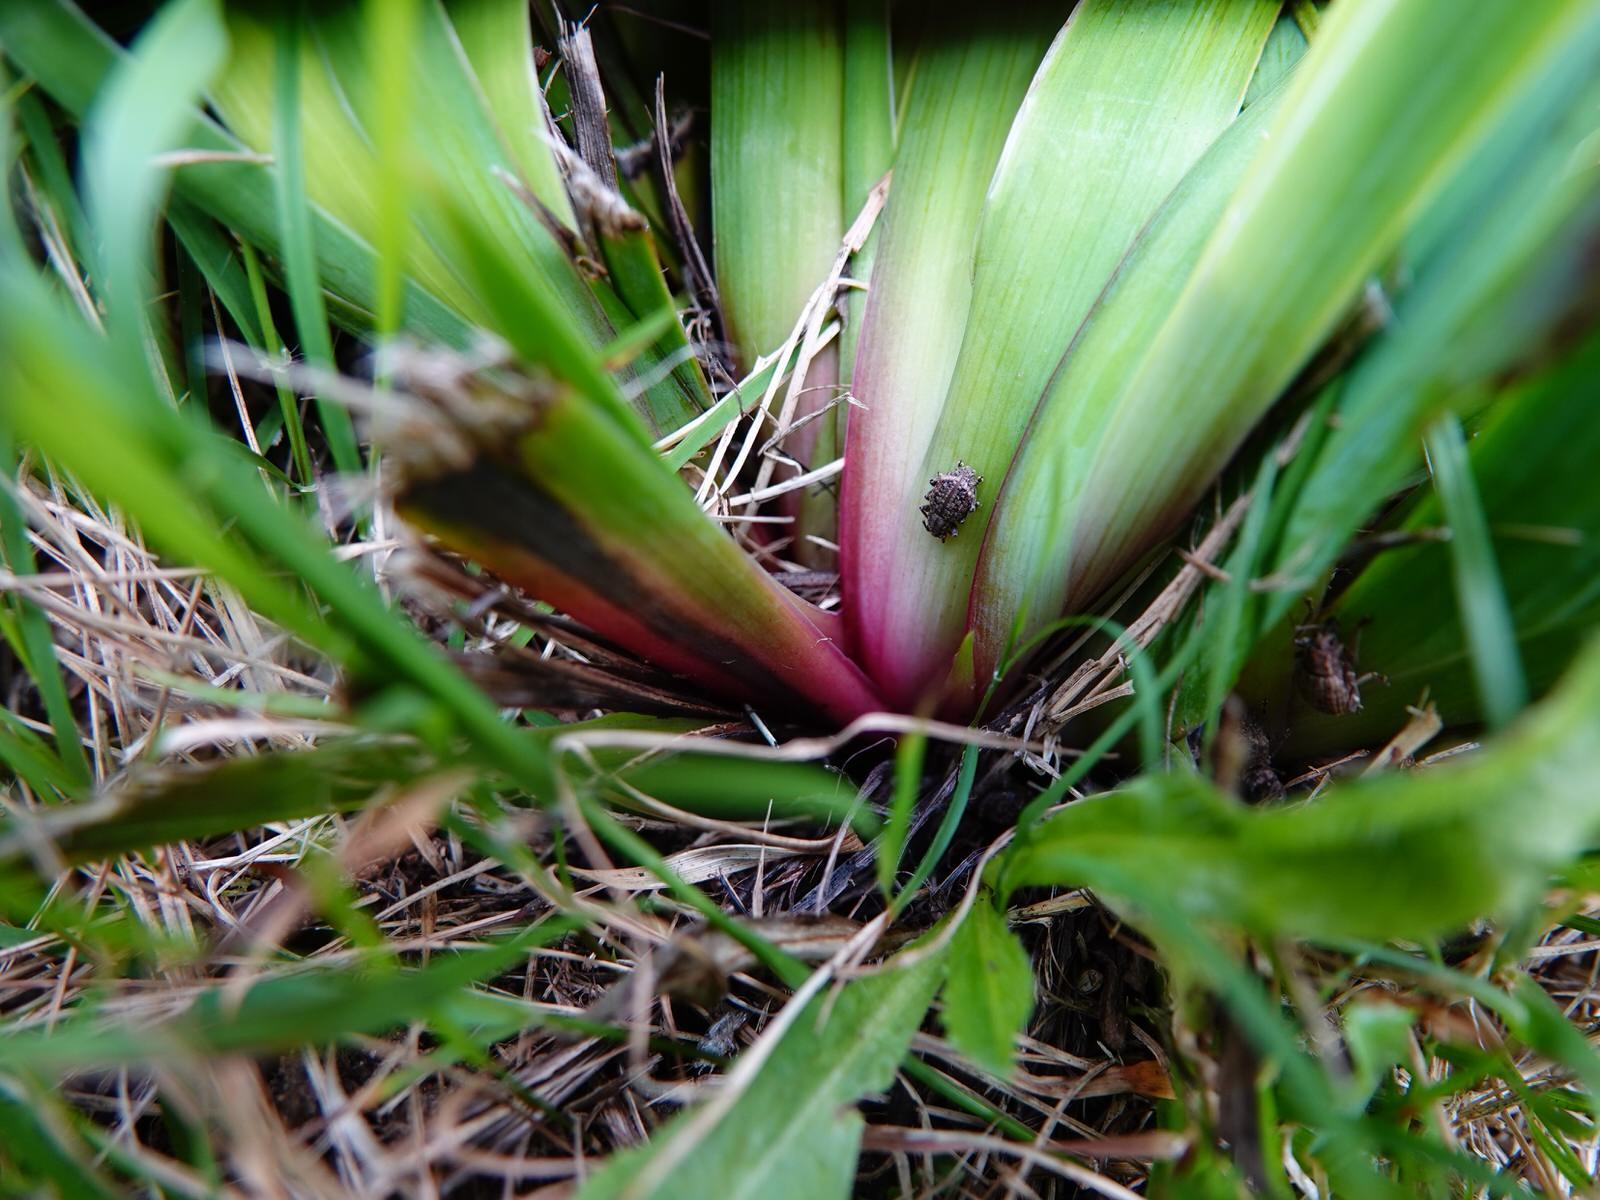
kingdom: Animalia
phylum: Arthropoda
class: Insecta
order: Coleoptera
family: Curculionidae
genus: Phlyctinus
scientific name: Phlyctinus callosus
